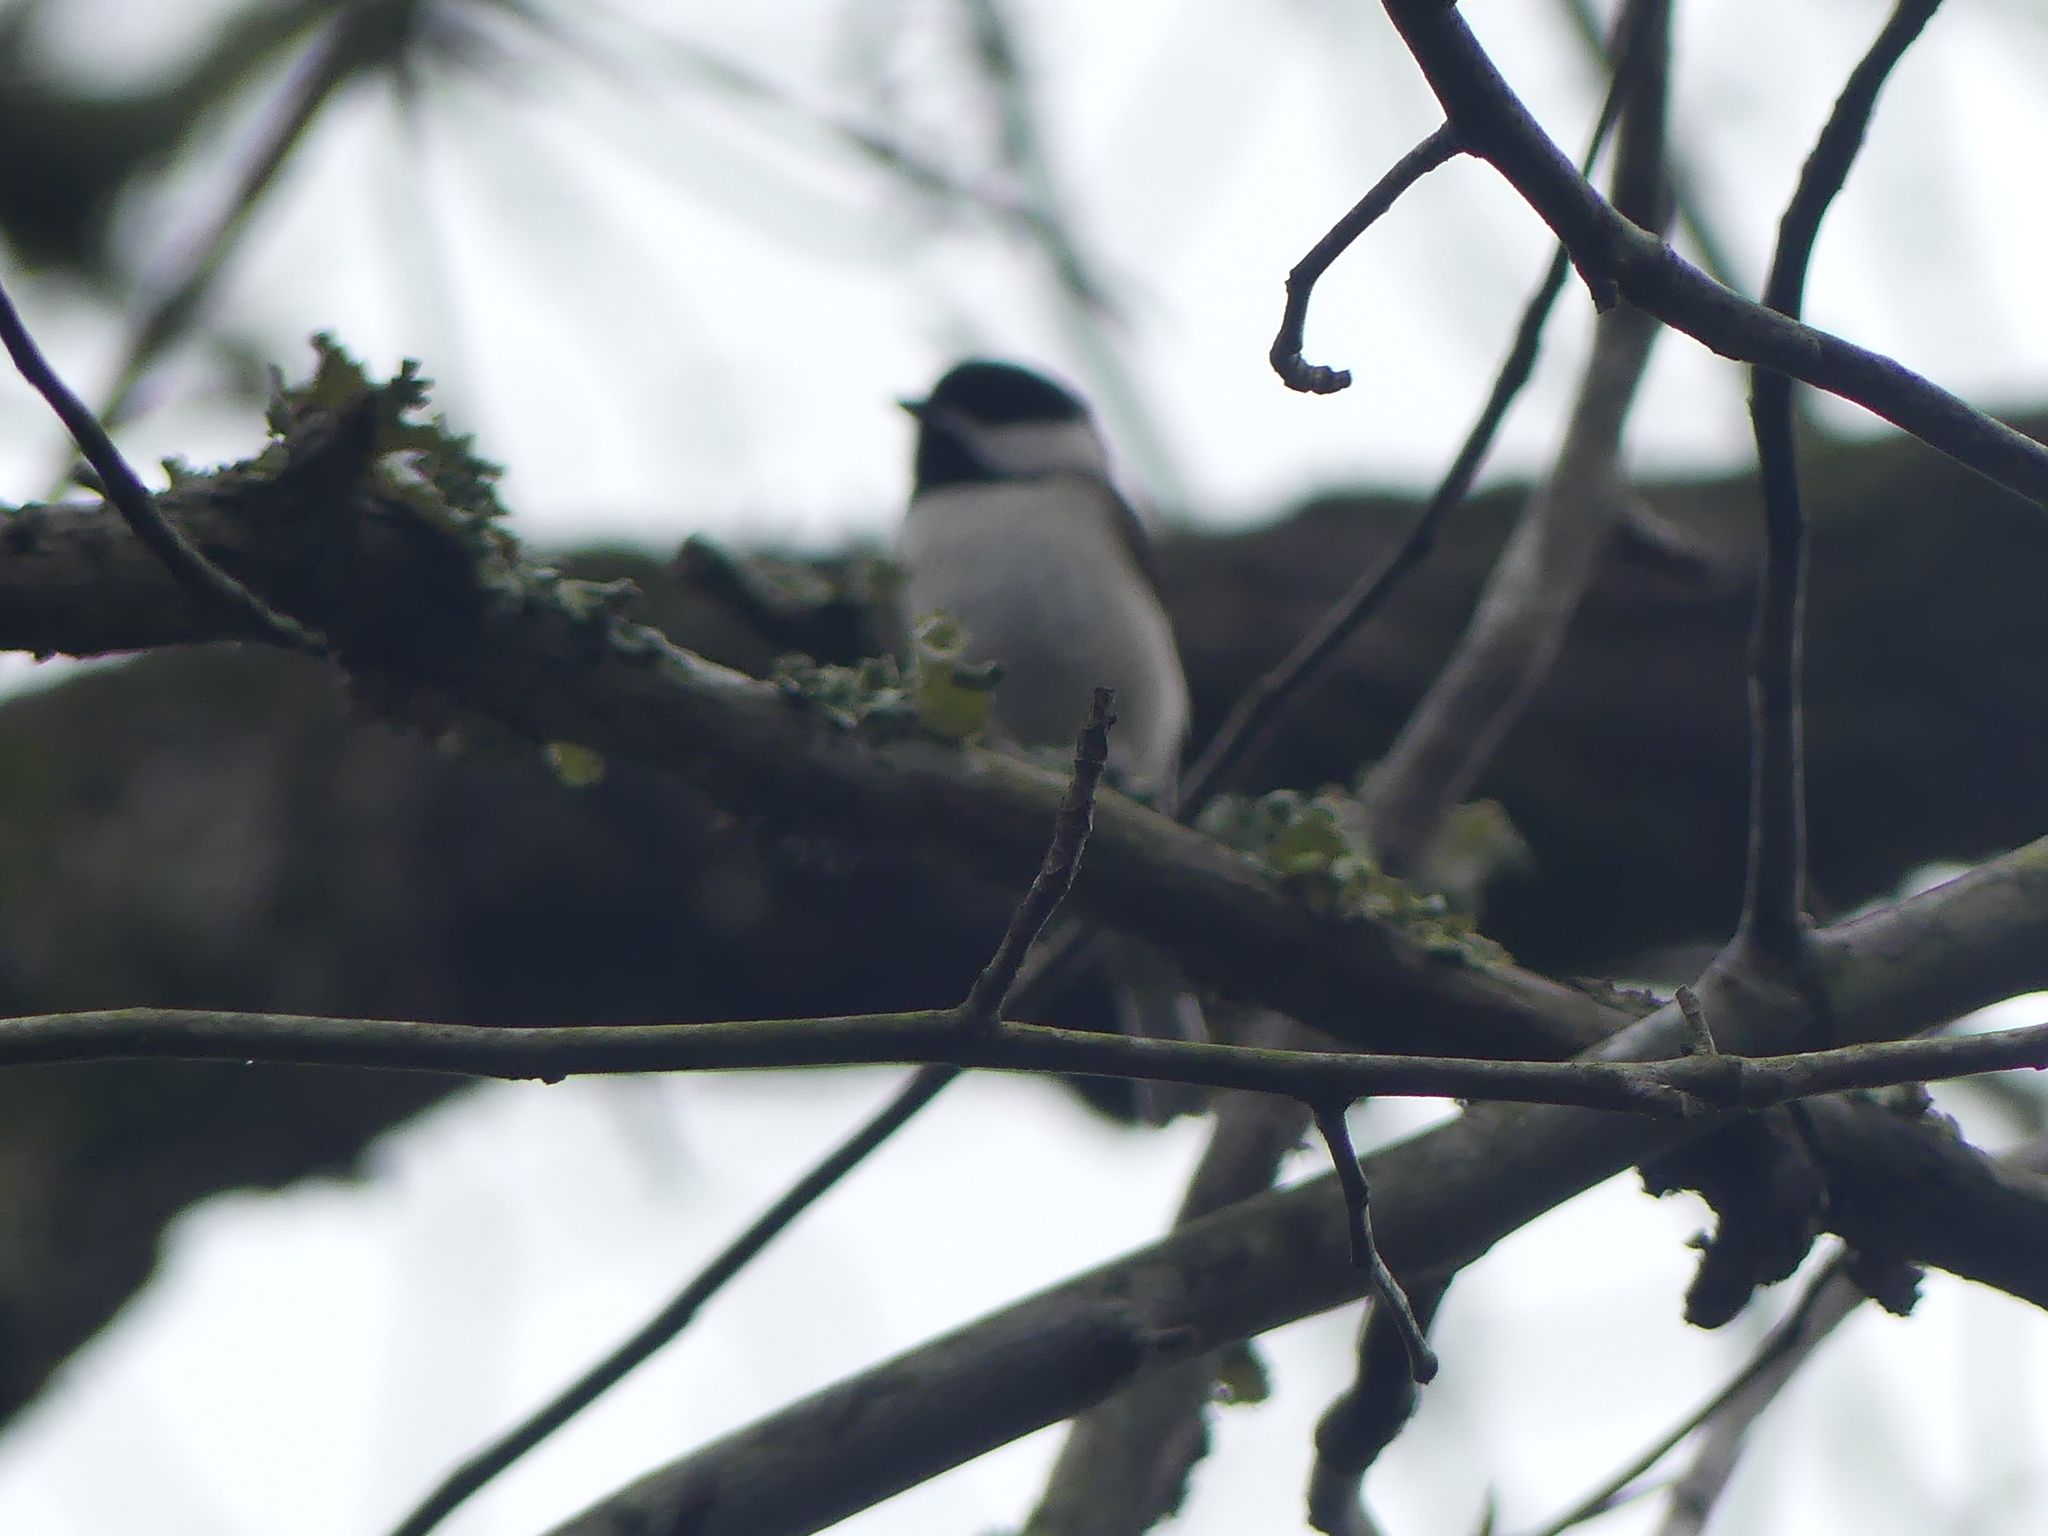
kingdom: Animalia
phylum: Chordata
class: Aves
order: Passeriformes
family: Paridae
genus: Poecile
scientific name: Poecile carolinensis
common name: Carolina chickadee
